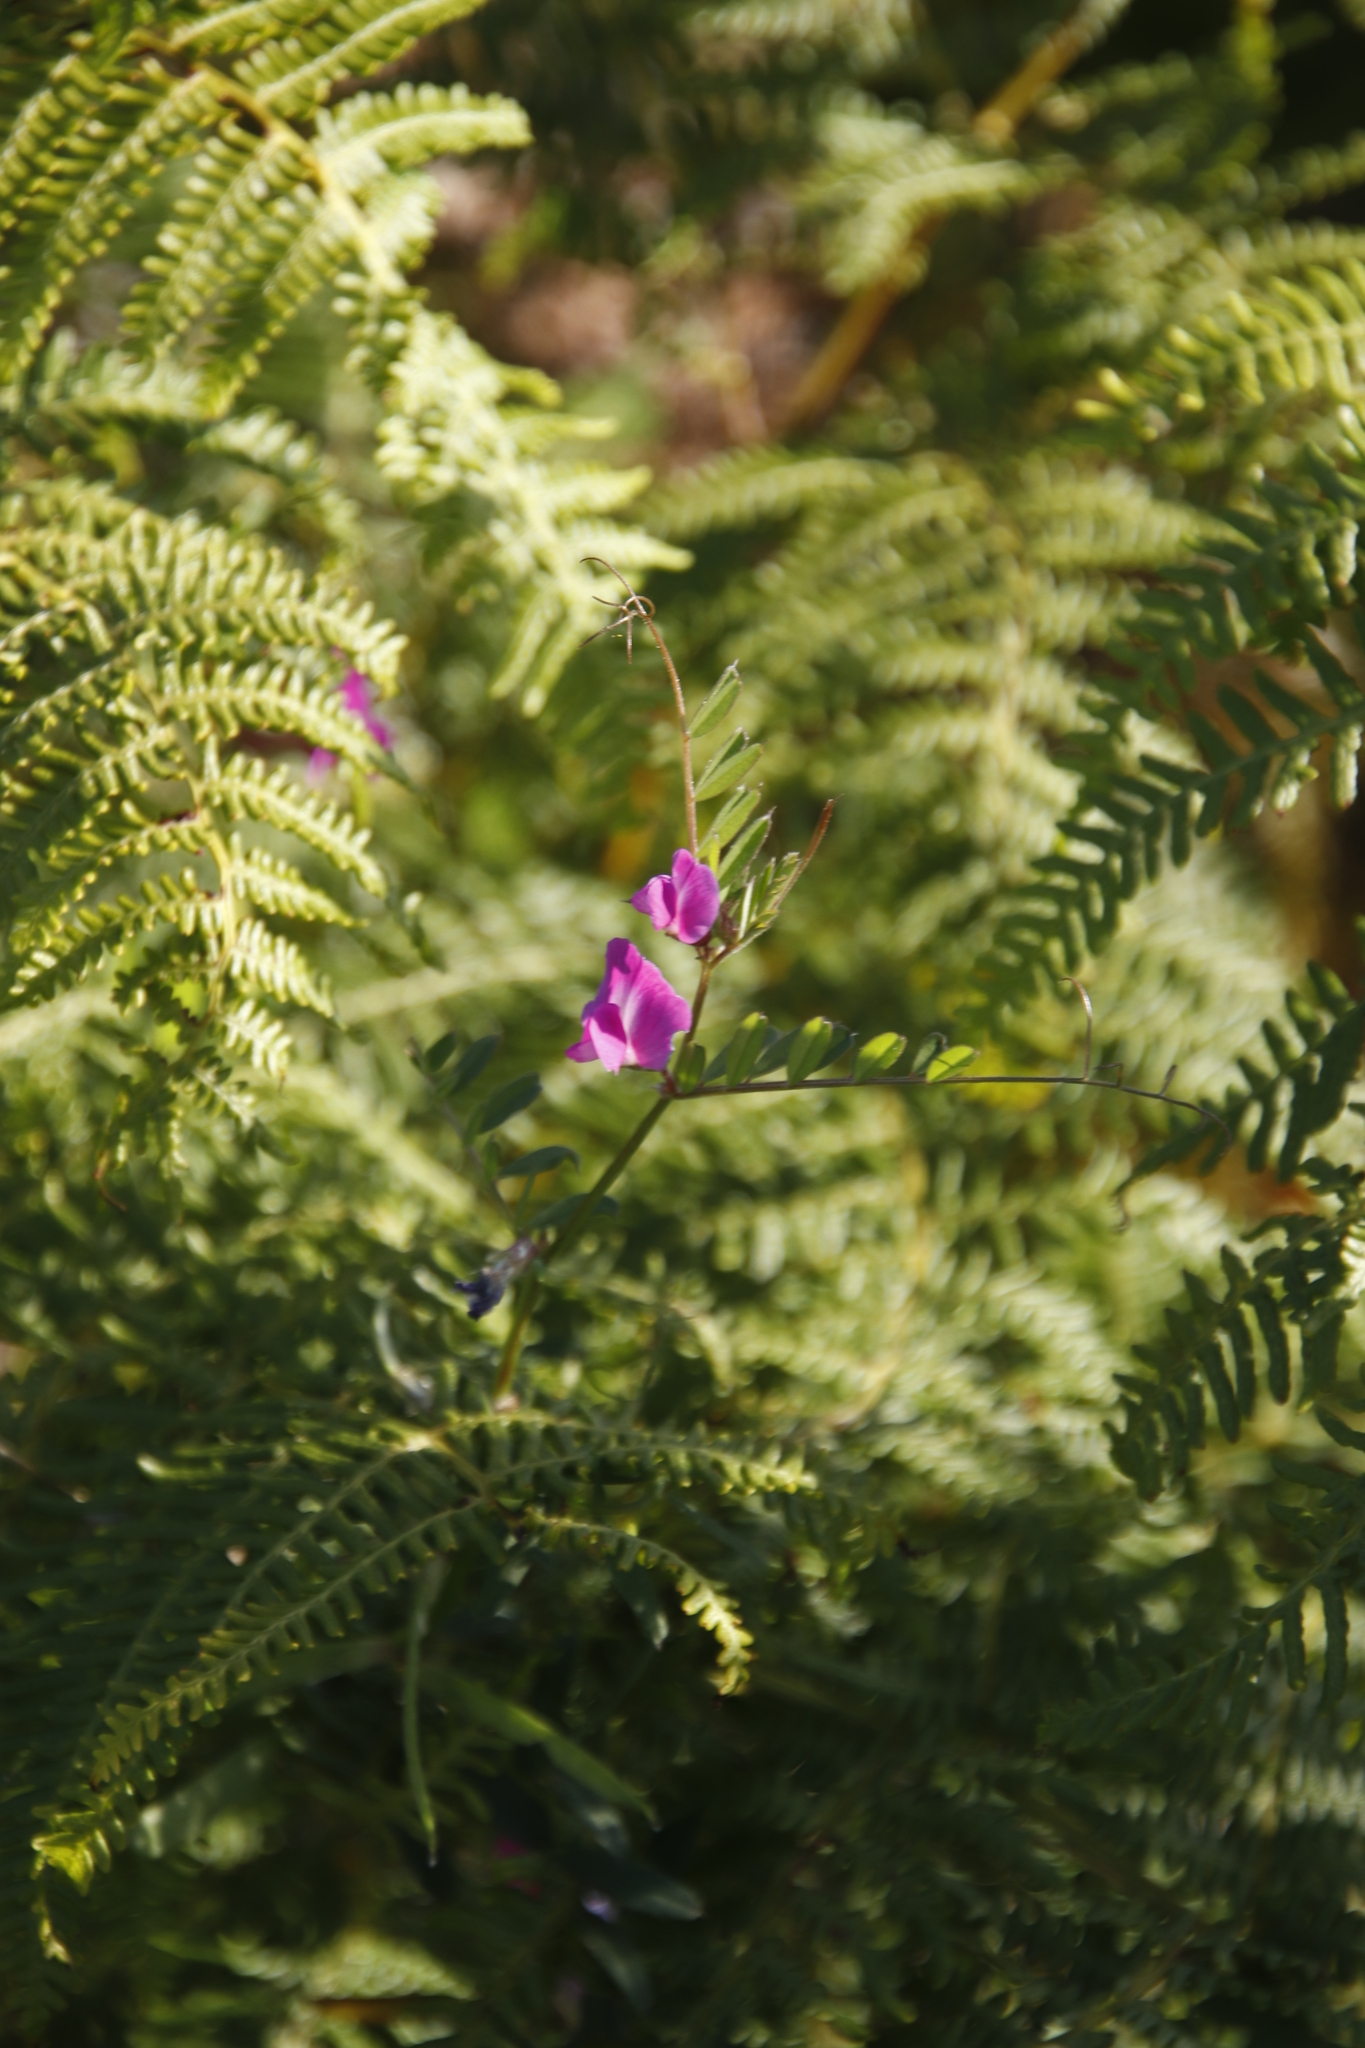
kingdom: Plantae
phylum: Tracheophyta
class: Magnoliopsida
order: Fabales
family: Fabaceae
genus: Vicia
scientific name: Vicia sativa
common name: Garden vetch
